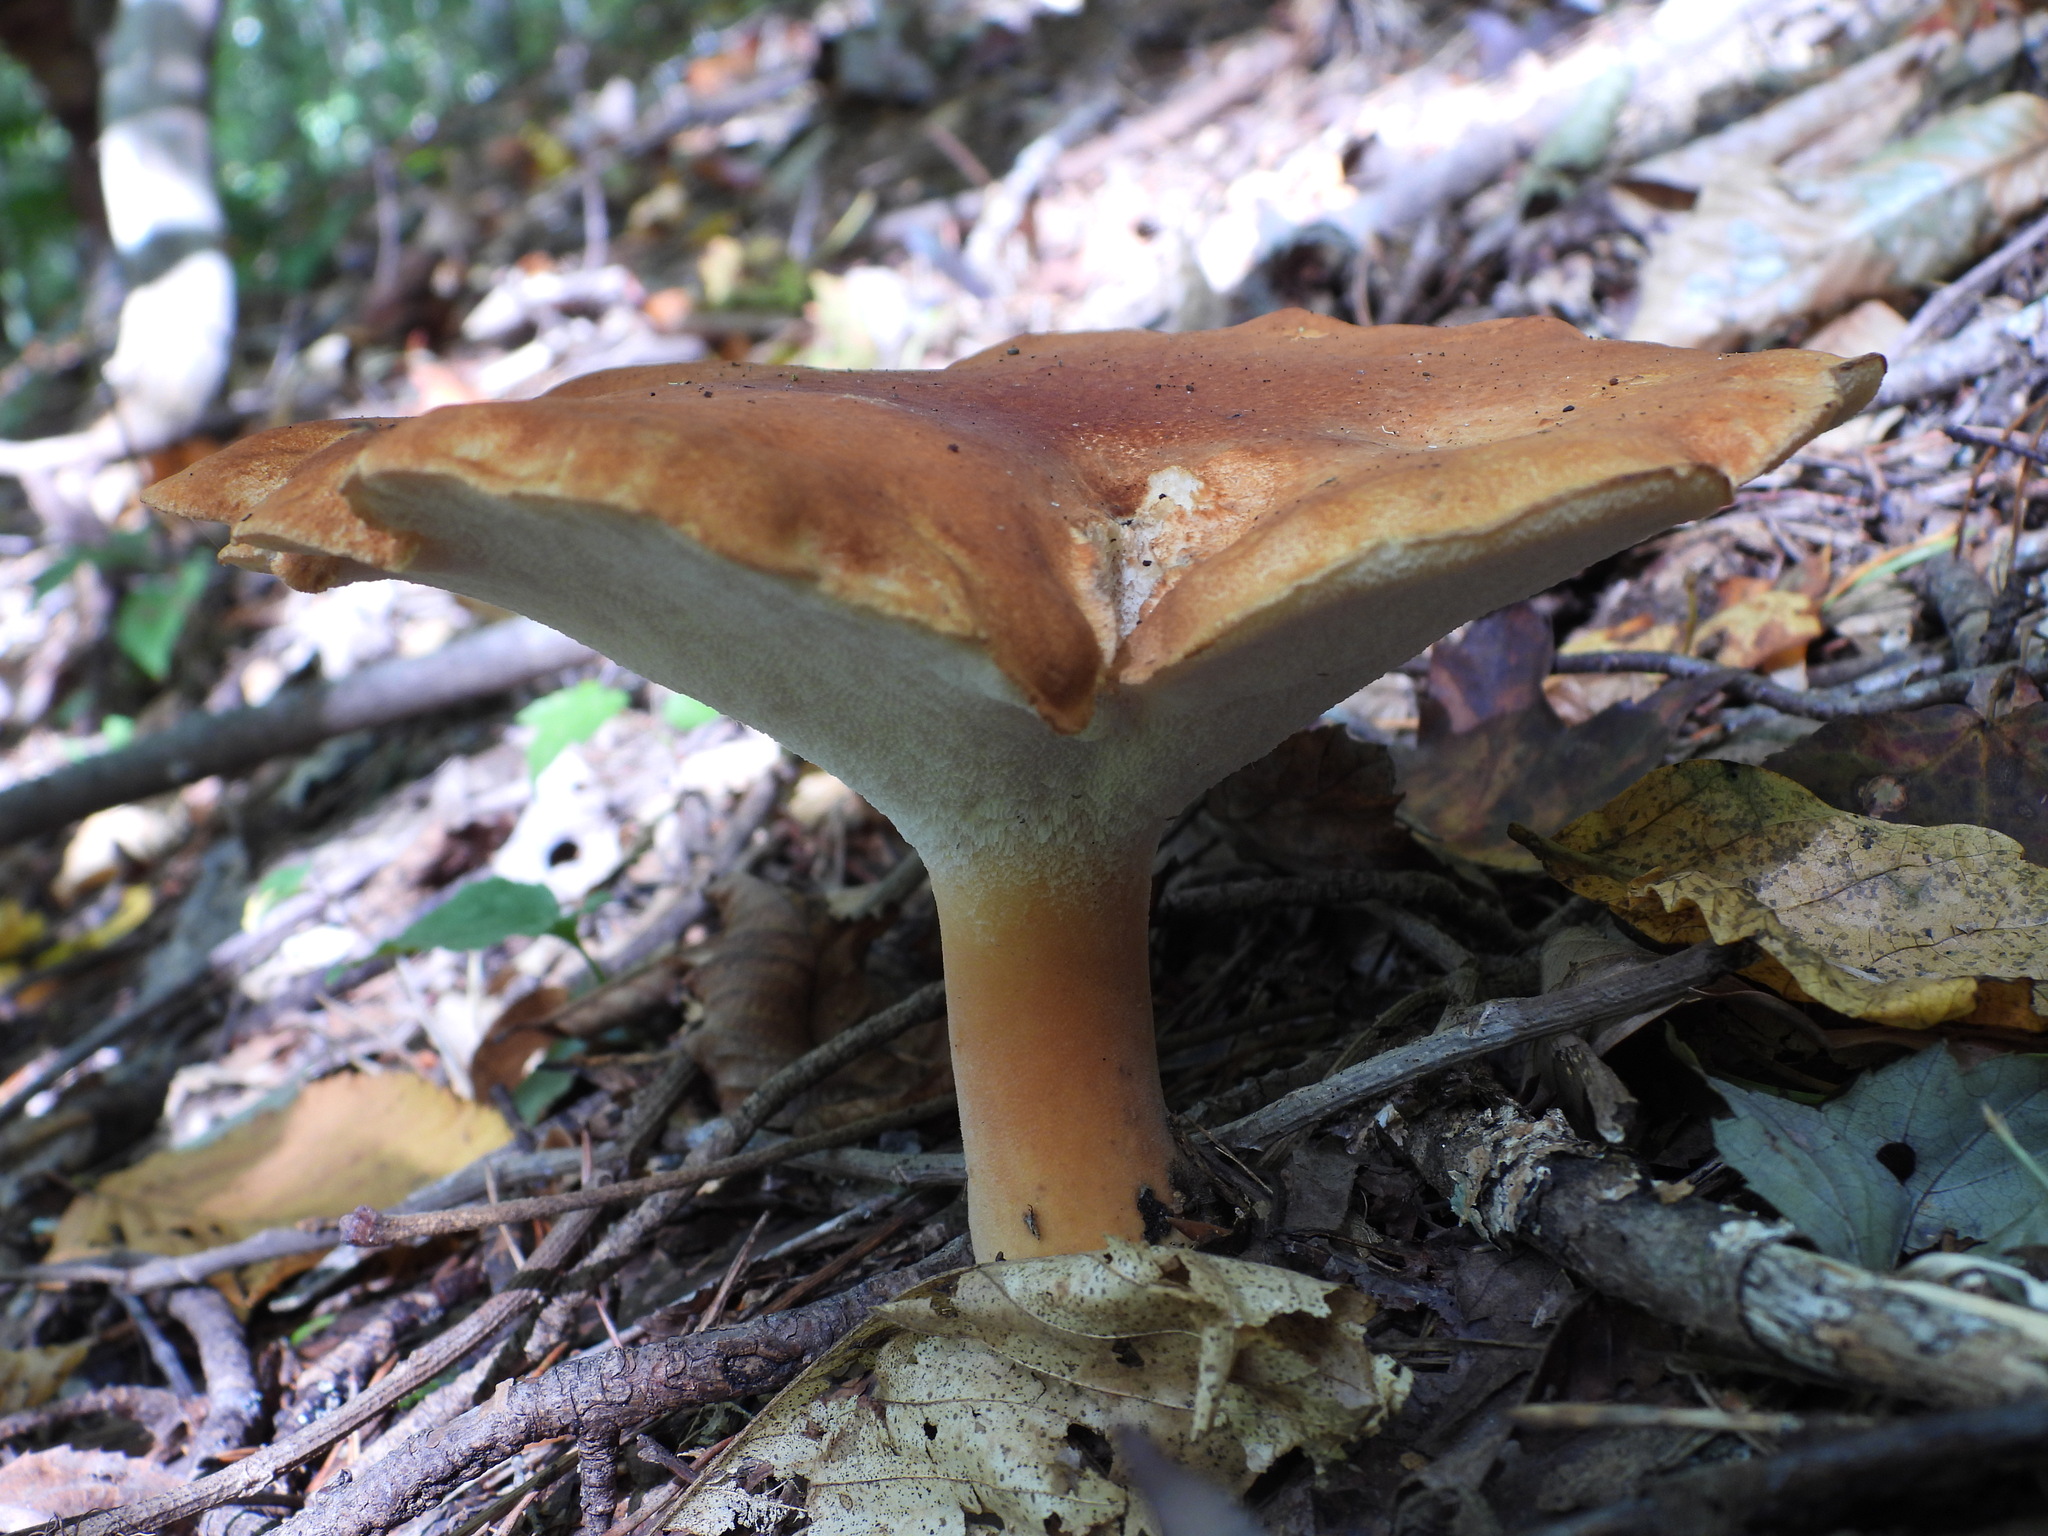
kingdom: Fungi
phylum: Basidiomycota
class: Agaricomycetes
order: Polyporales
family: Polyporaceae
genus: Polyporus
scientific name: Polyporus radicatus
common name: Rooting polypore
